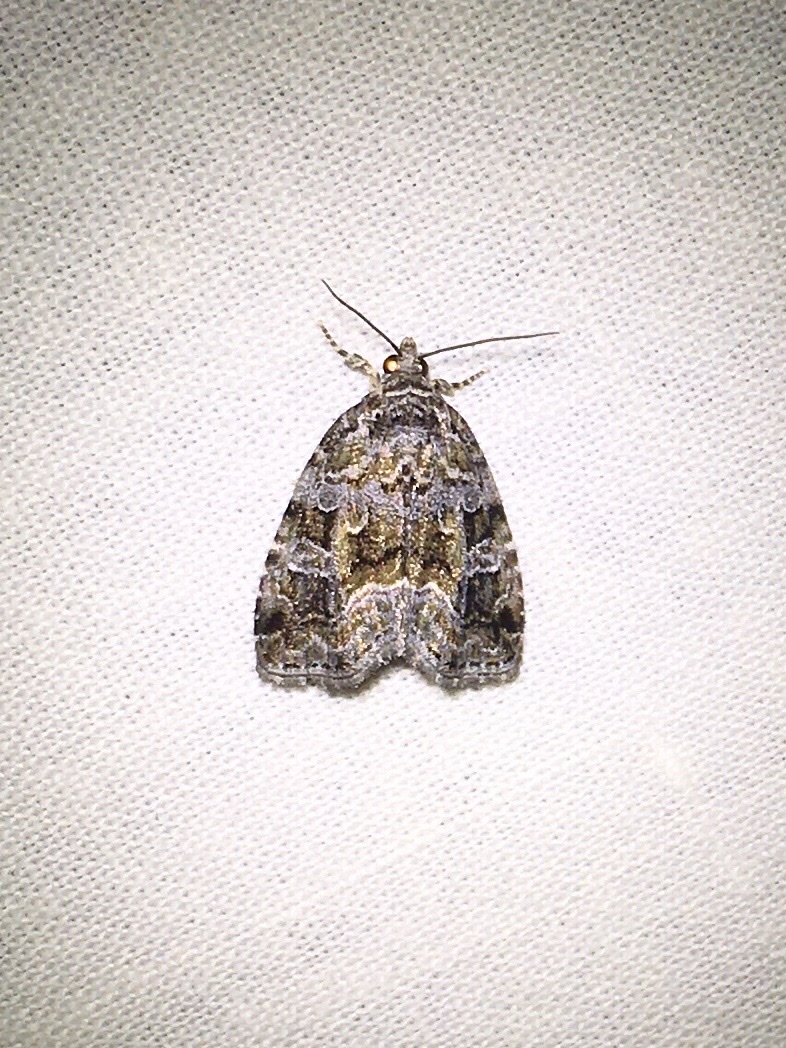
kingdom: Animalia
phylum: Arthropoda
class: Insecta
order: Lepidoptera
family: Noctuidae
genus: Protodeltote
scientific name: Protodeltote muscosula
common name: Large mossy glyph
